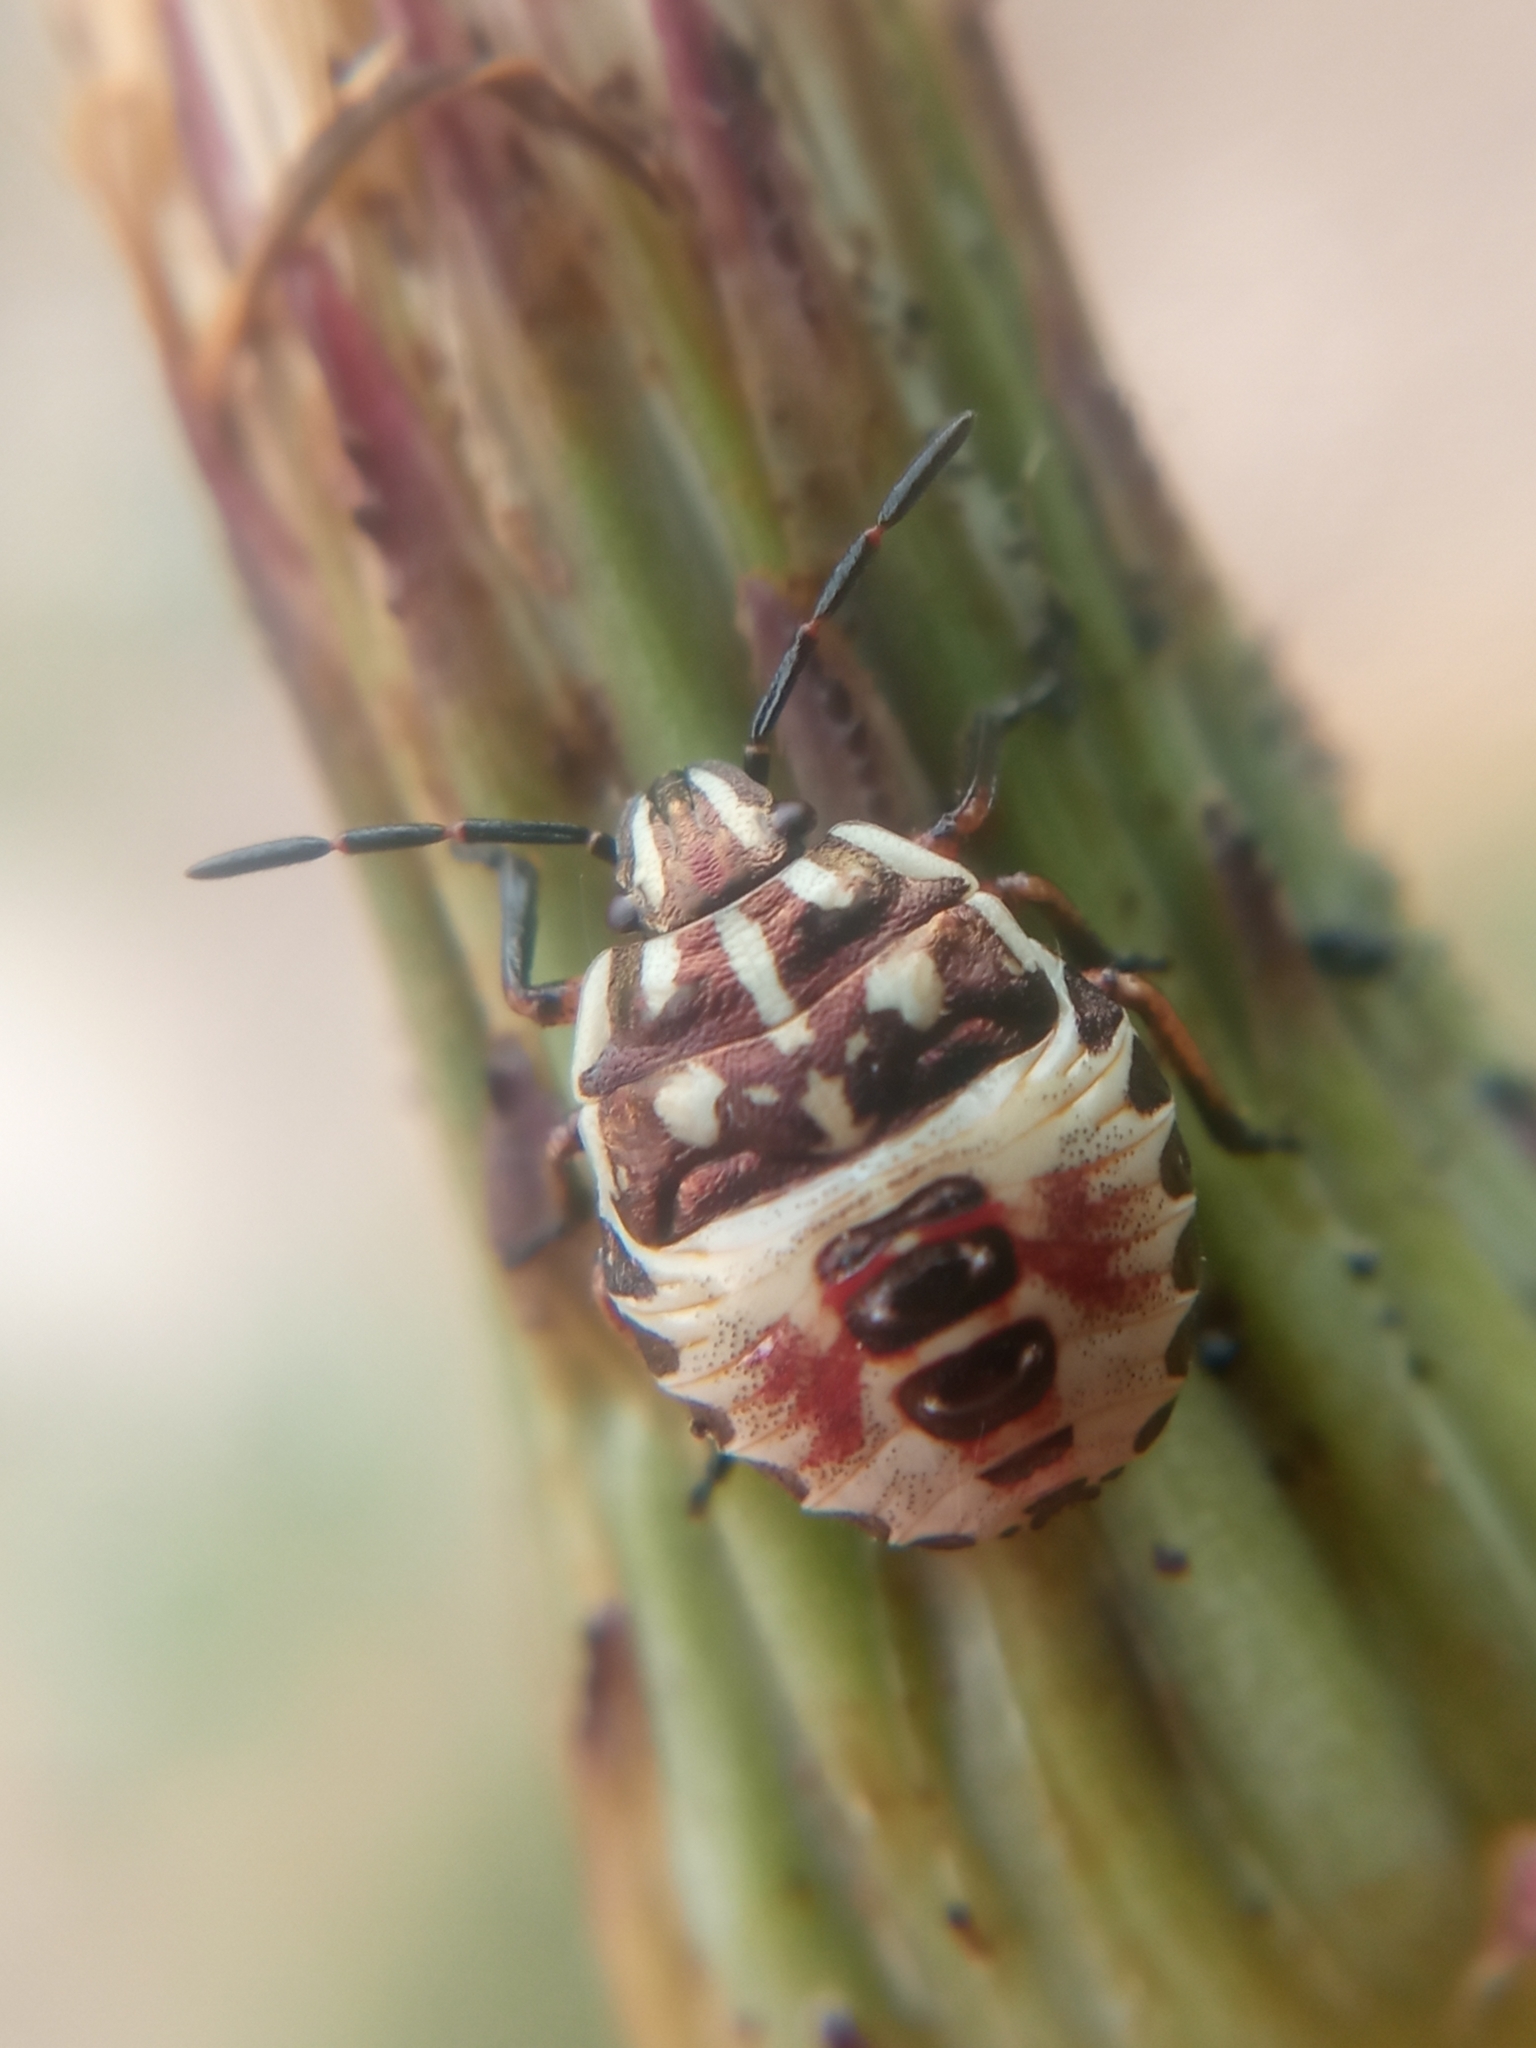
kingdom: Animalia
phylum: Arthropoda
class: Insecta
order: Hemiptera
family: Pentatomidae
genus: Carpocoris
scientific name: Carpocoris
